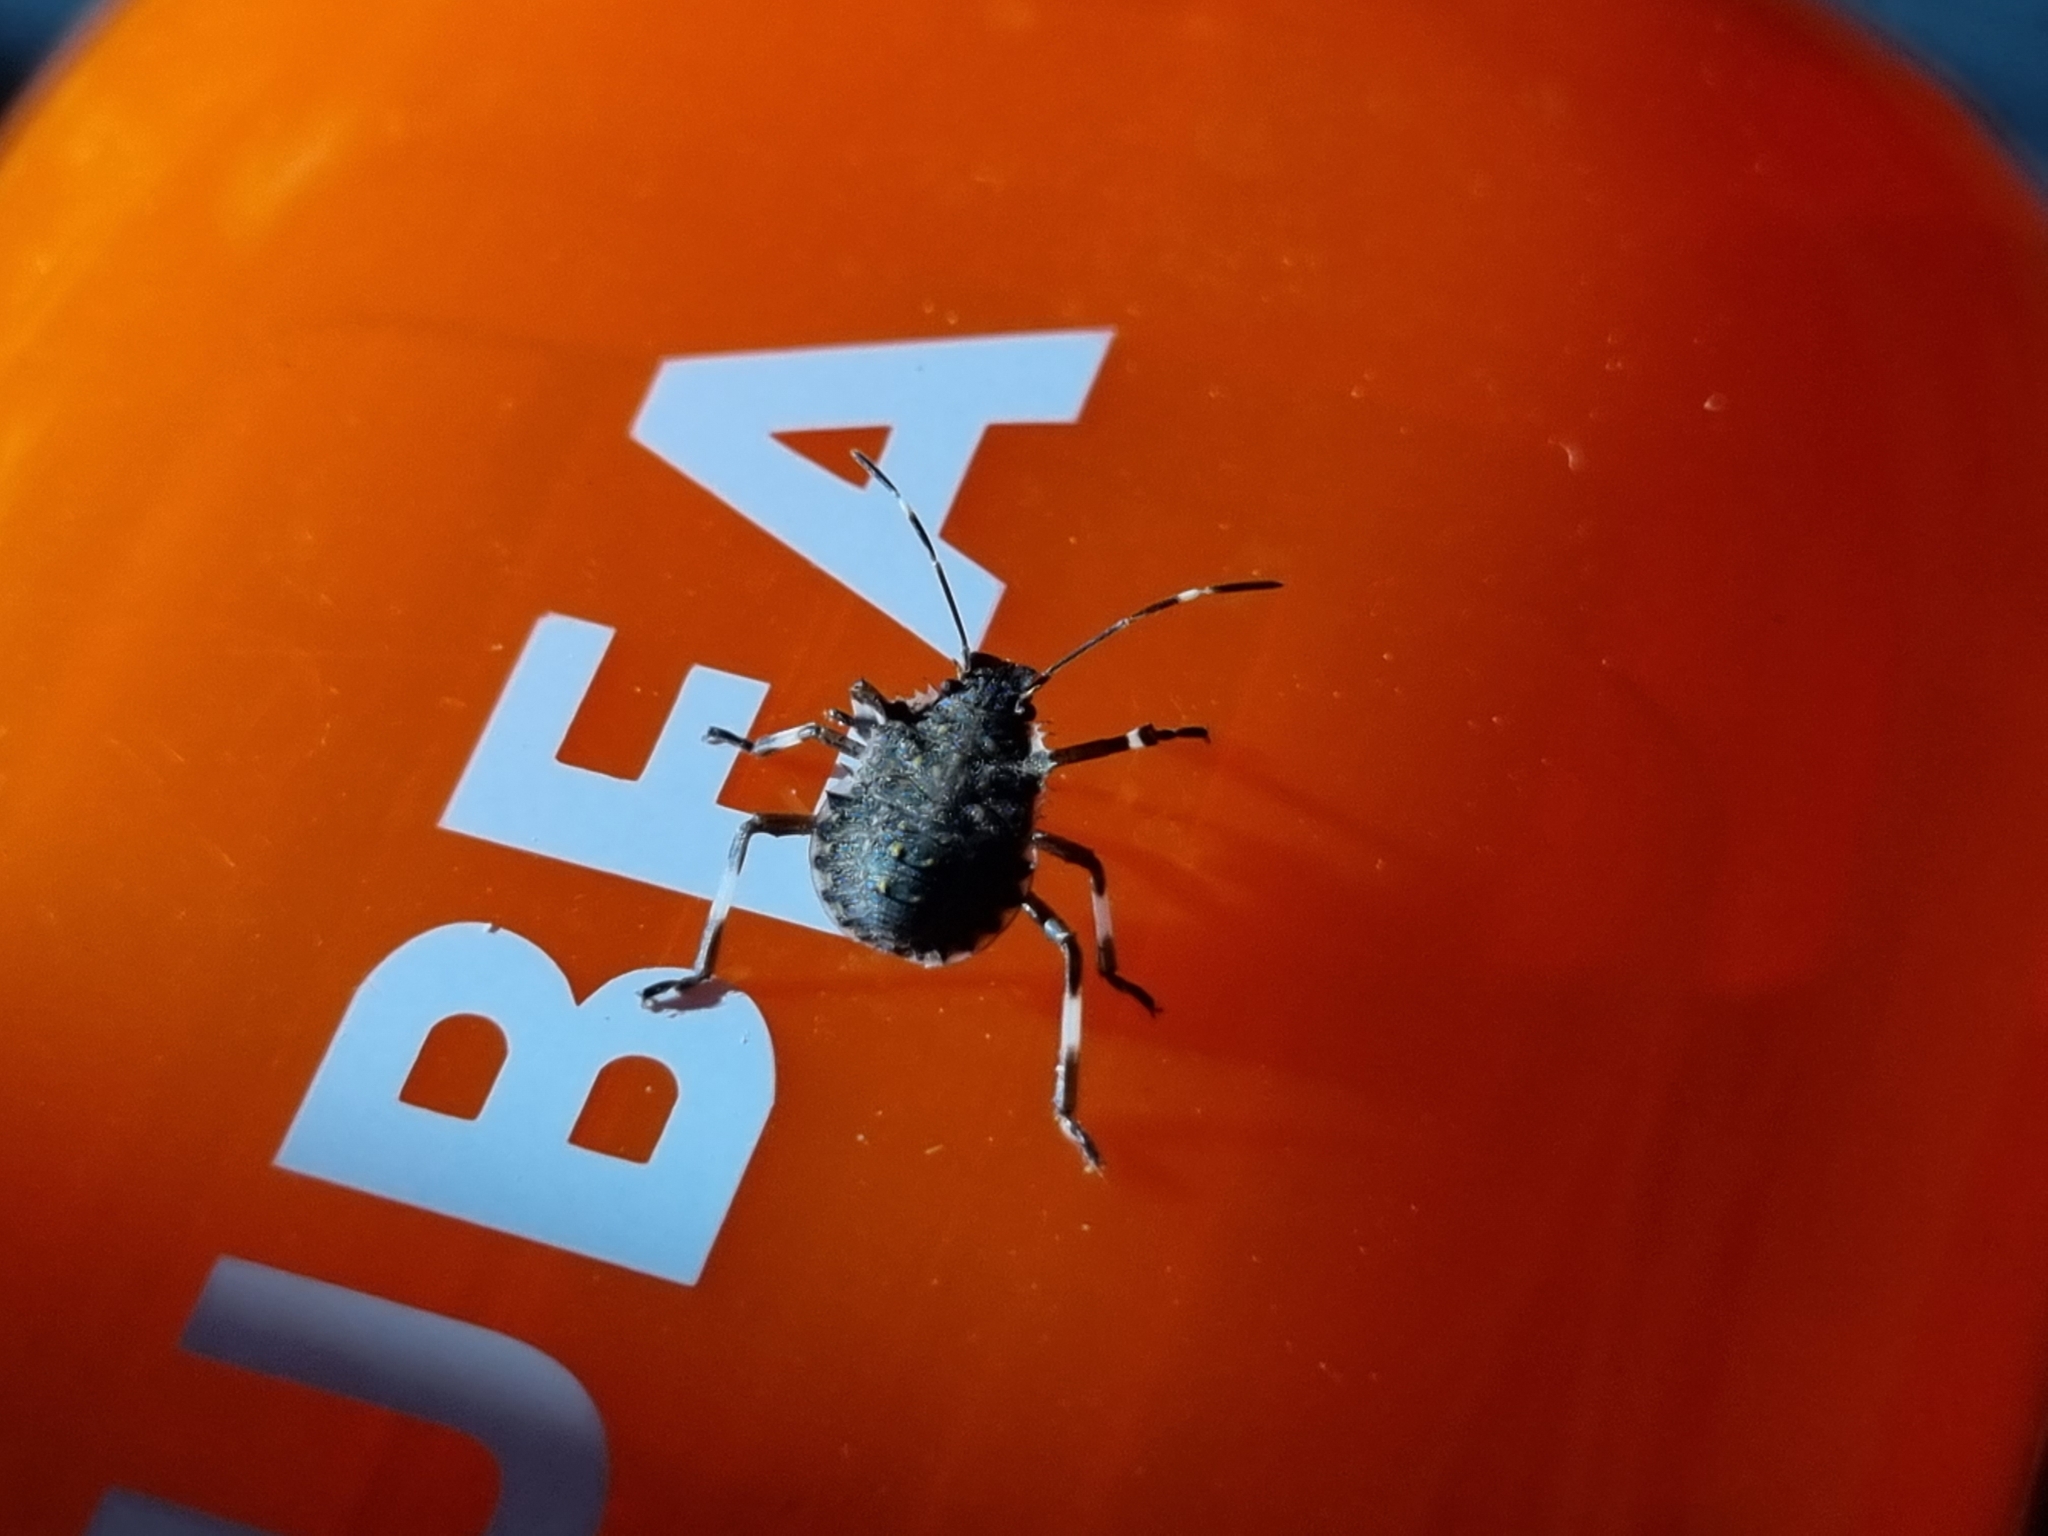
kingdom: Animalia
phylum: Arthropoda
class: Insecta
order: Hemiptera
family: Pentatomidae
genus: Halyomorpha
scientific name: Halyomorpha halys
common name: Brown marmorated stink bug
